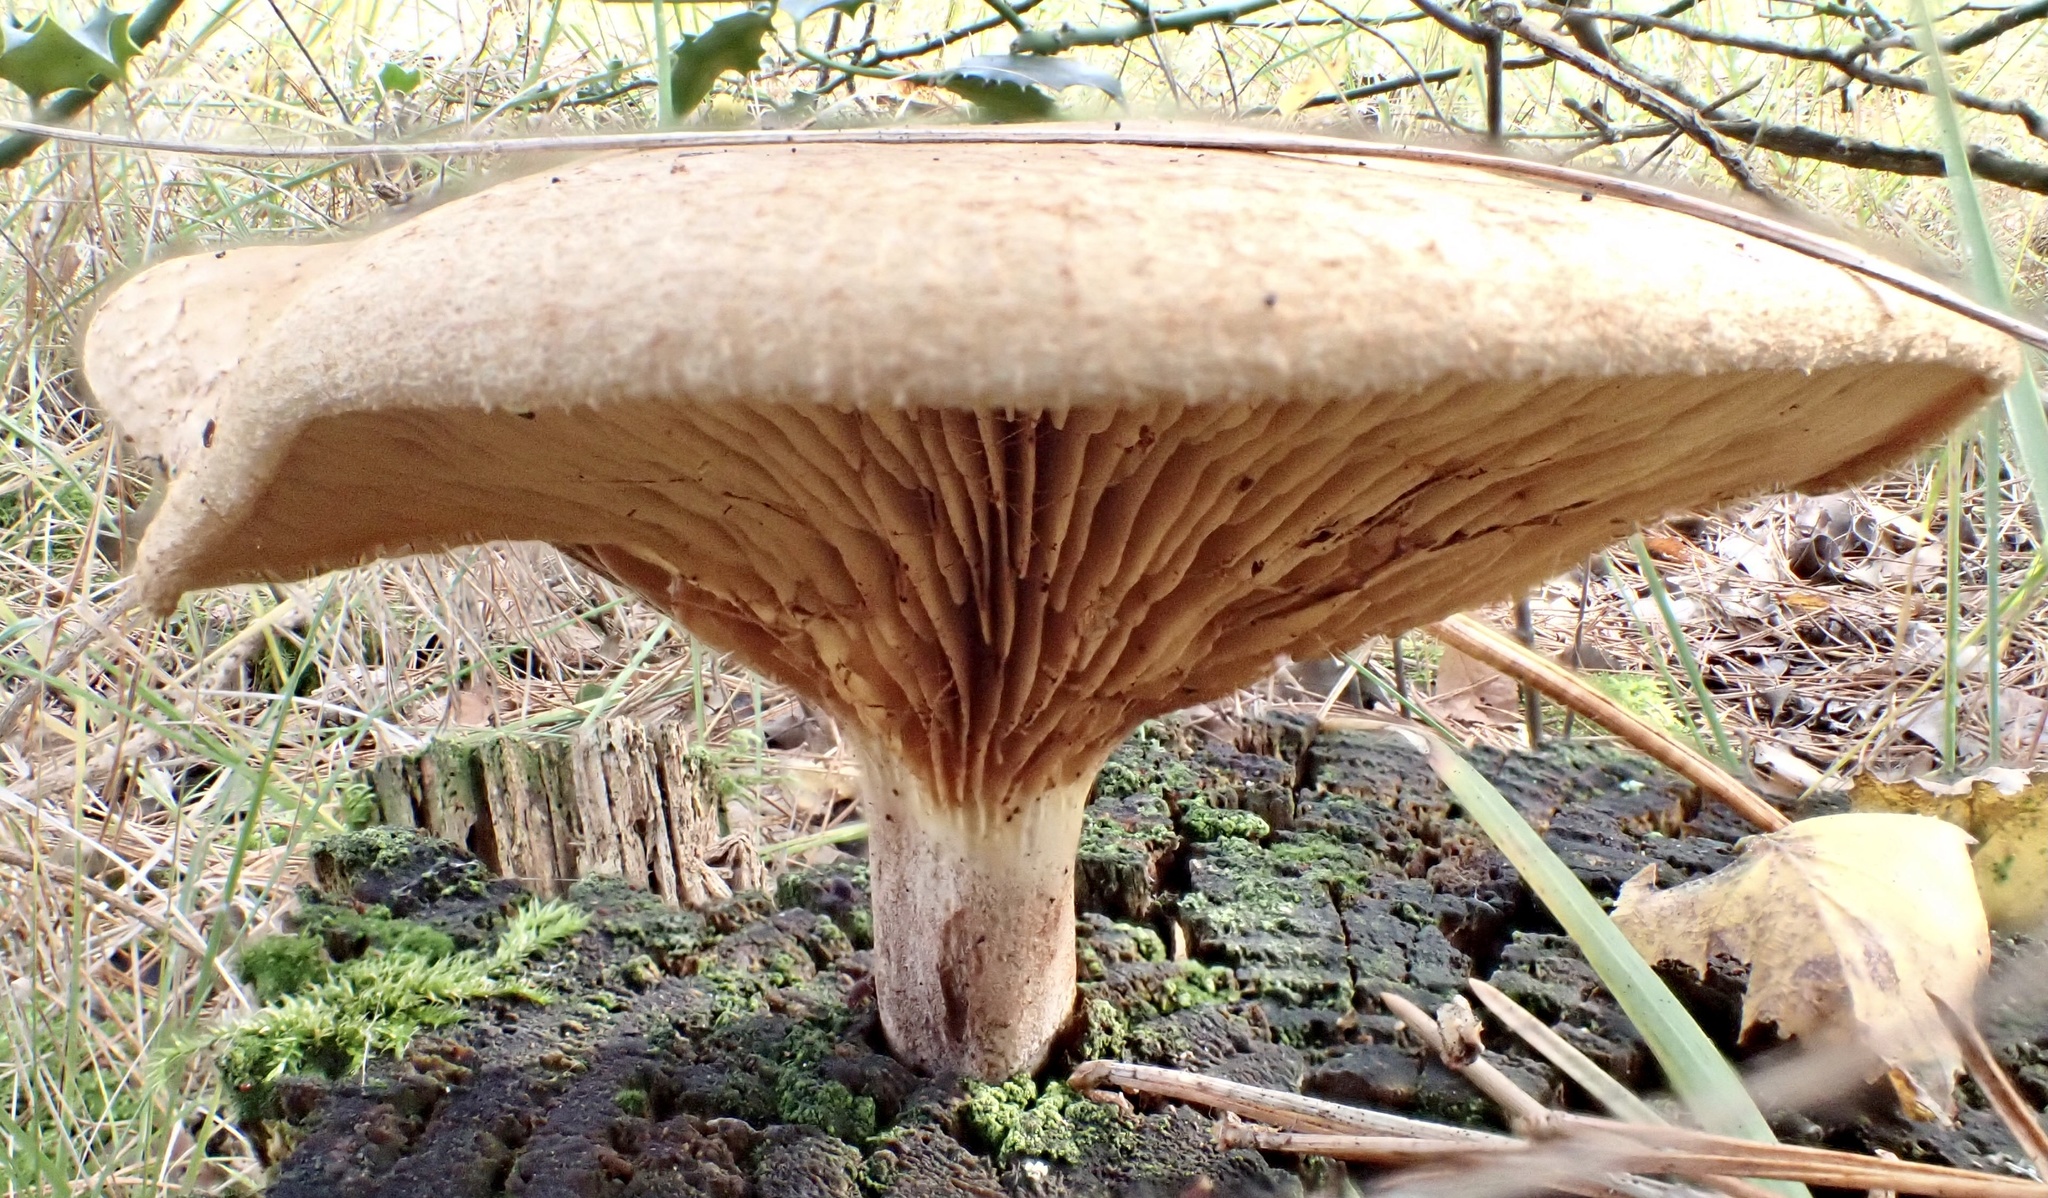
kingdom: Fungi
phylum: Basidiomycota
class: Agaricomycetes
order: Boletales
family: Paxillaceae
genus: Paxillus
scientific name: Paxillus involutus
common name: Brown roll rim
